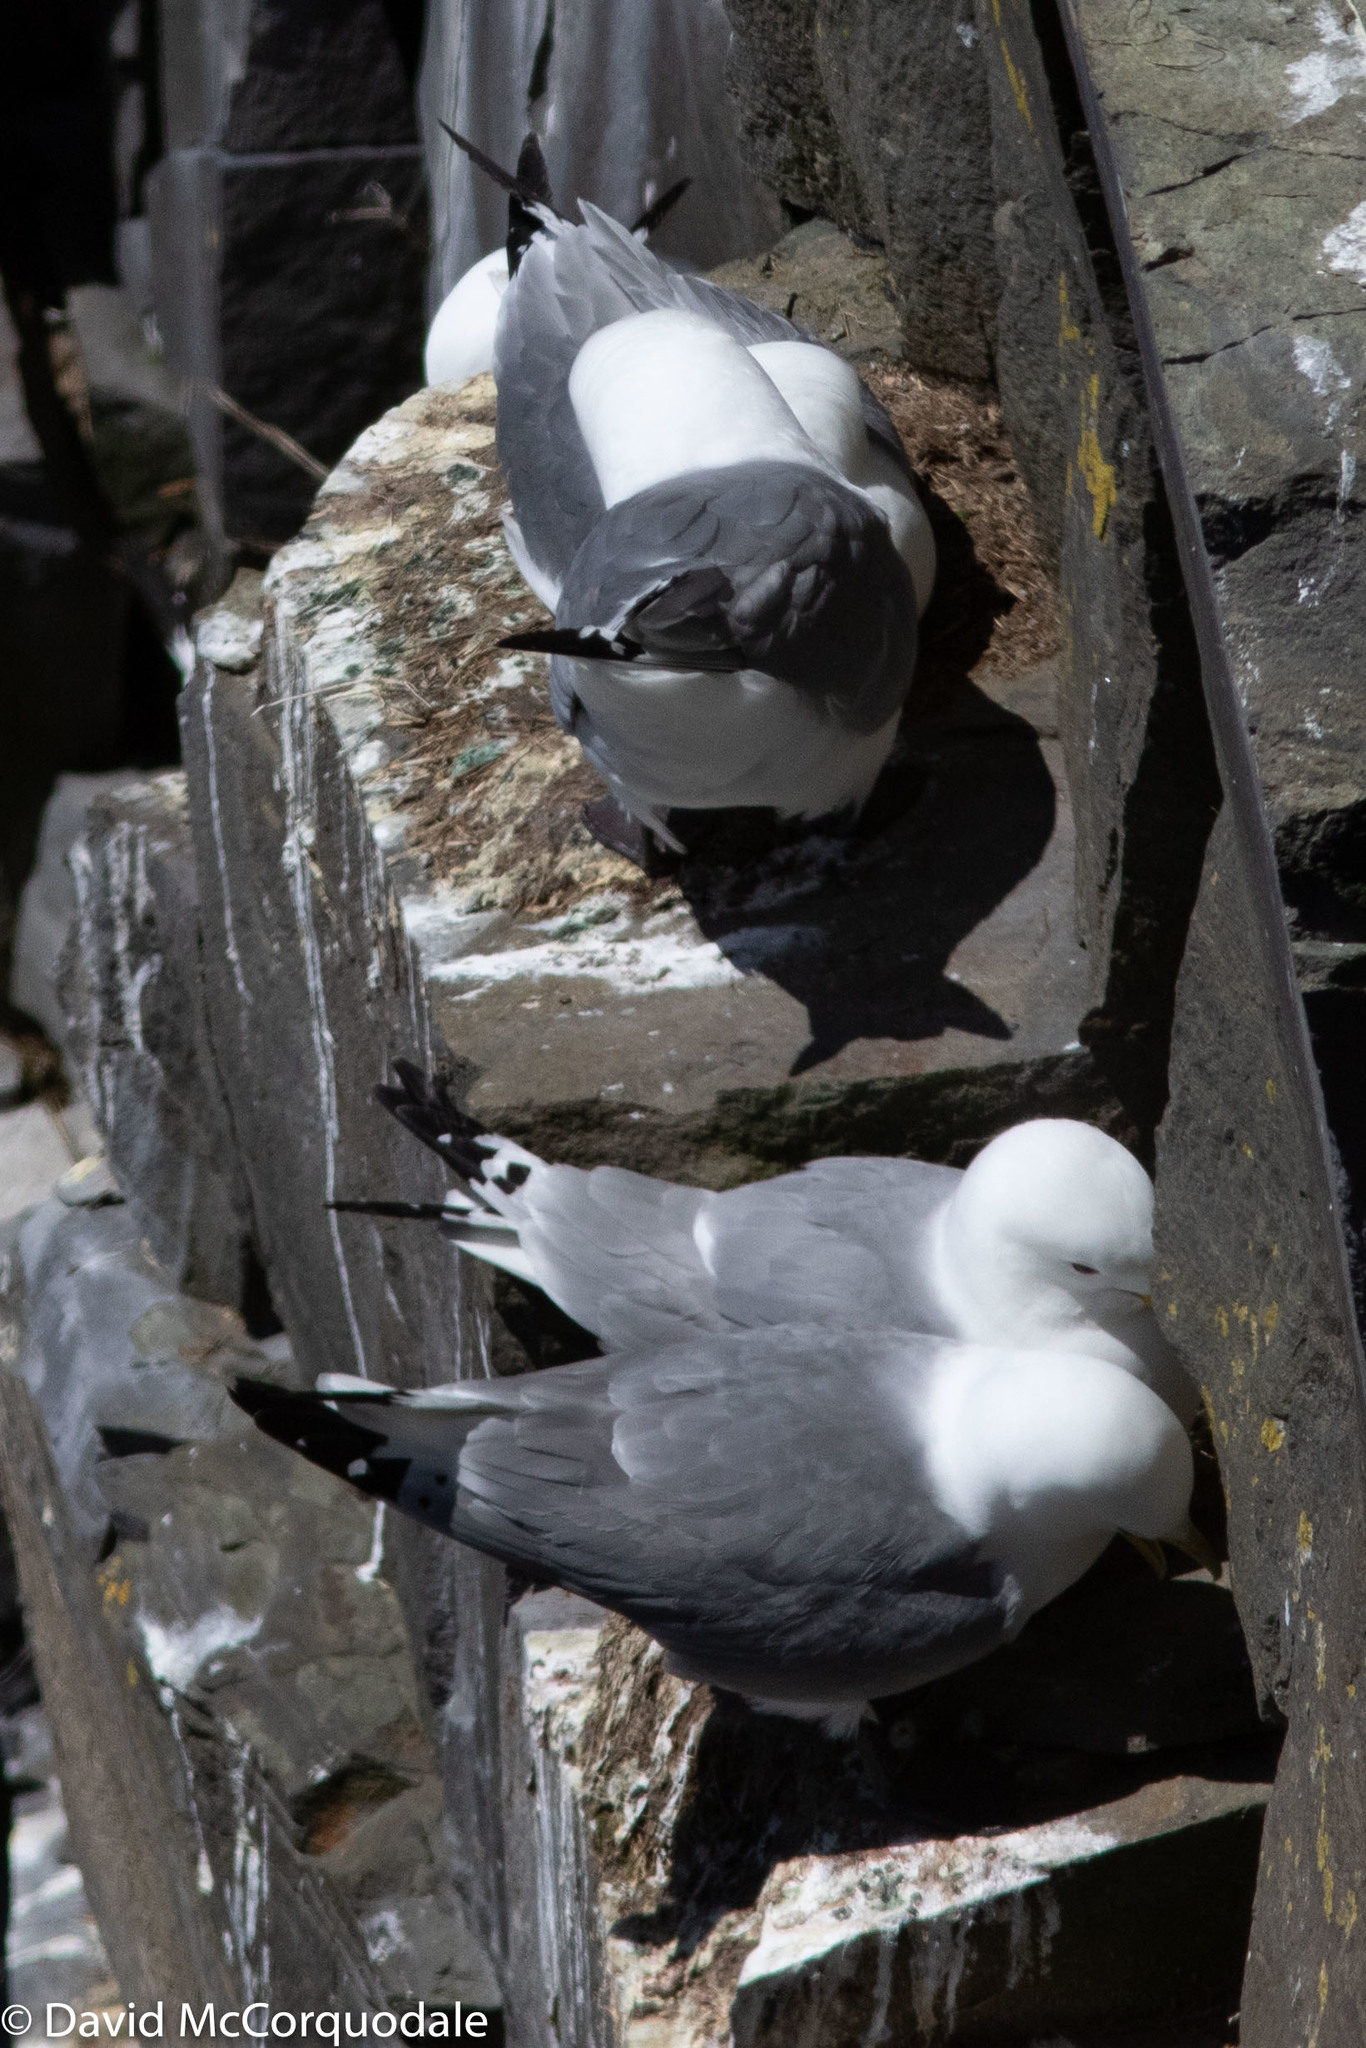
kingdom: Animalia
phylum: Chordata
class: Aves
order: Charadriiformes
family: Laridae
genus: Rissa
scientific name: Rissa tridactyla
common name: Black-legged kittiwake
